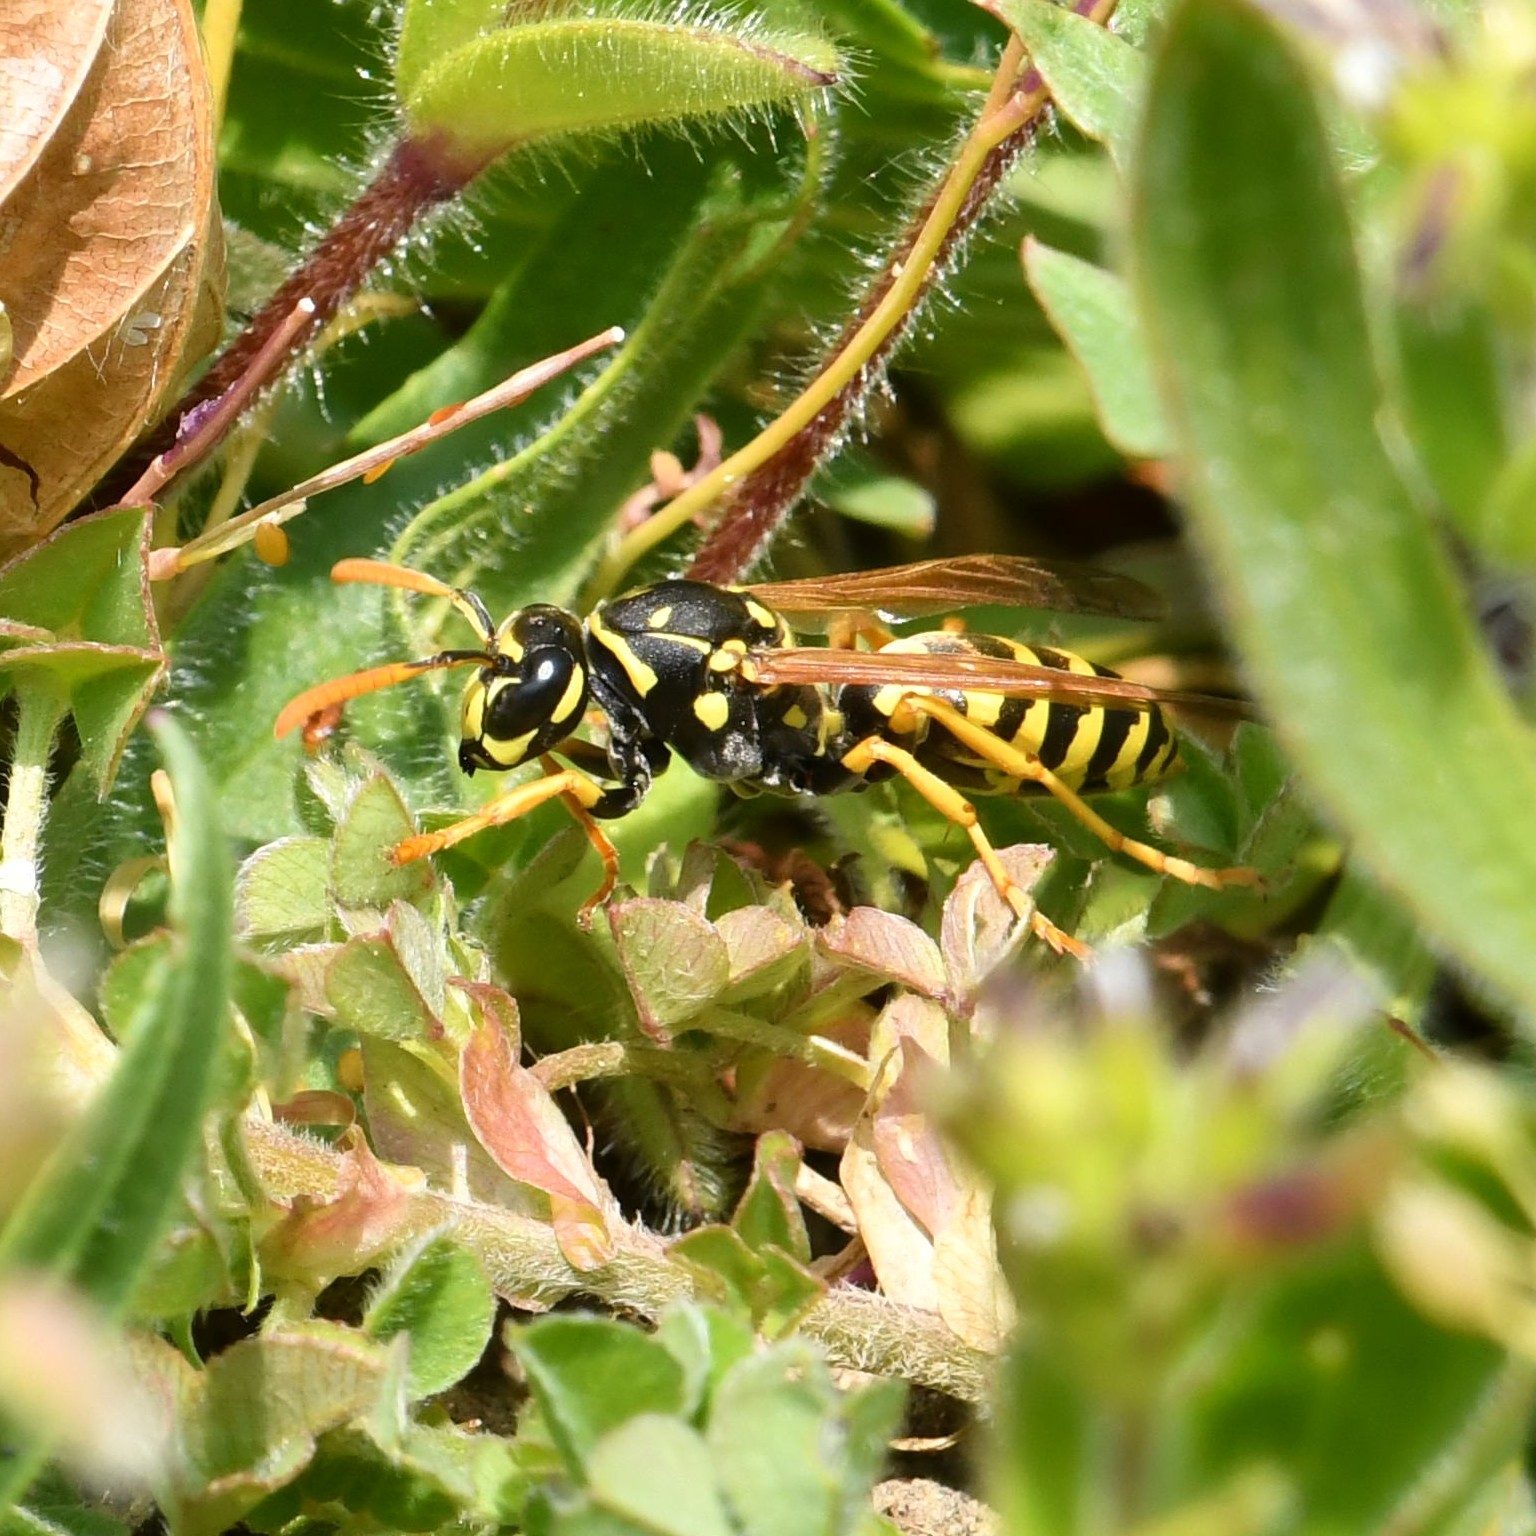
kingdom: Animalia
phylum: Arthropoda
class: Insecta
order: Hymenoptera
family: Eumenidae
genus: Polistes
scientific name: Polistes dominula
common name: Paper wasp
